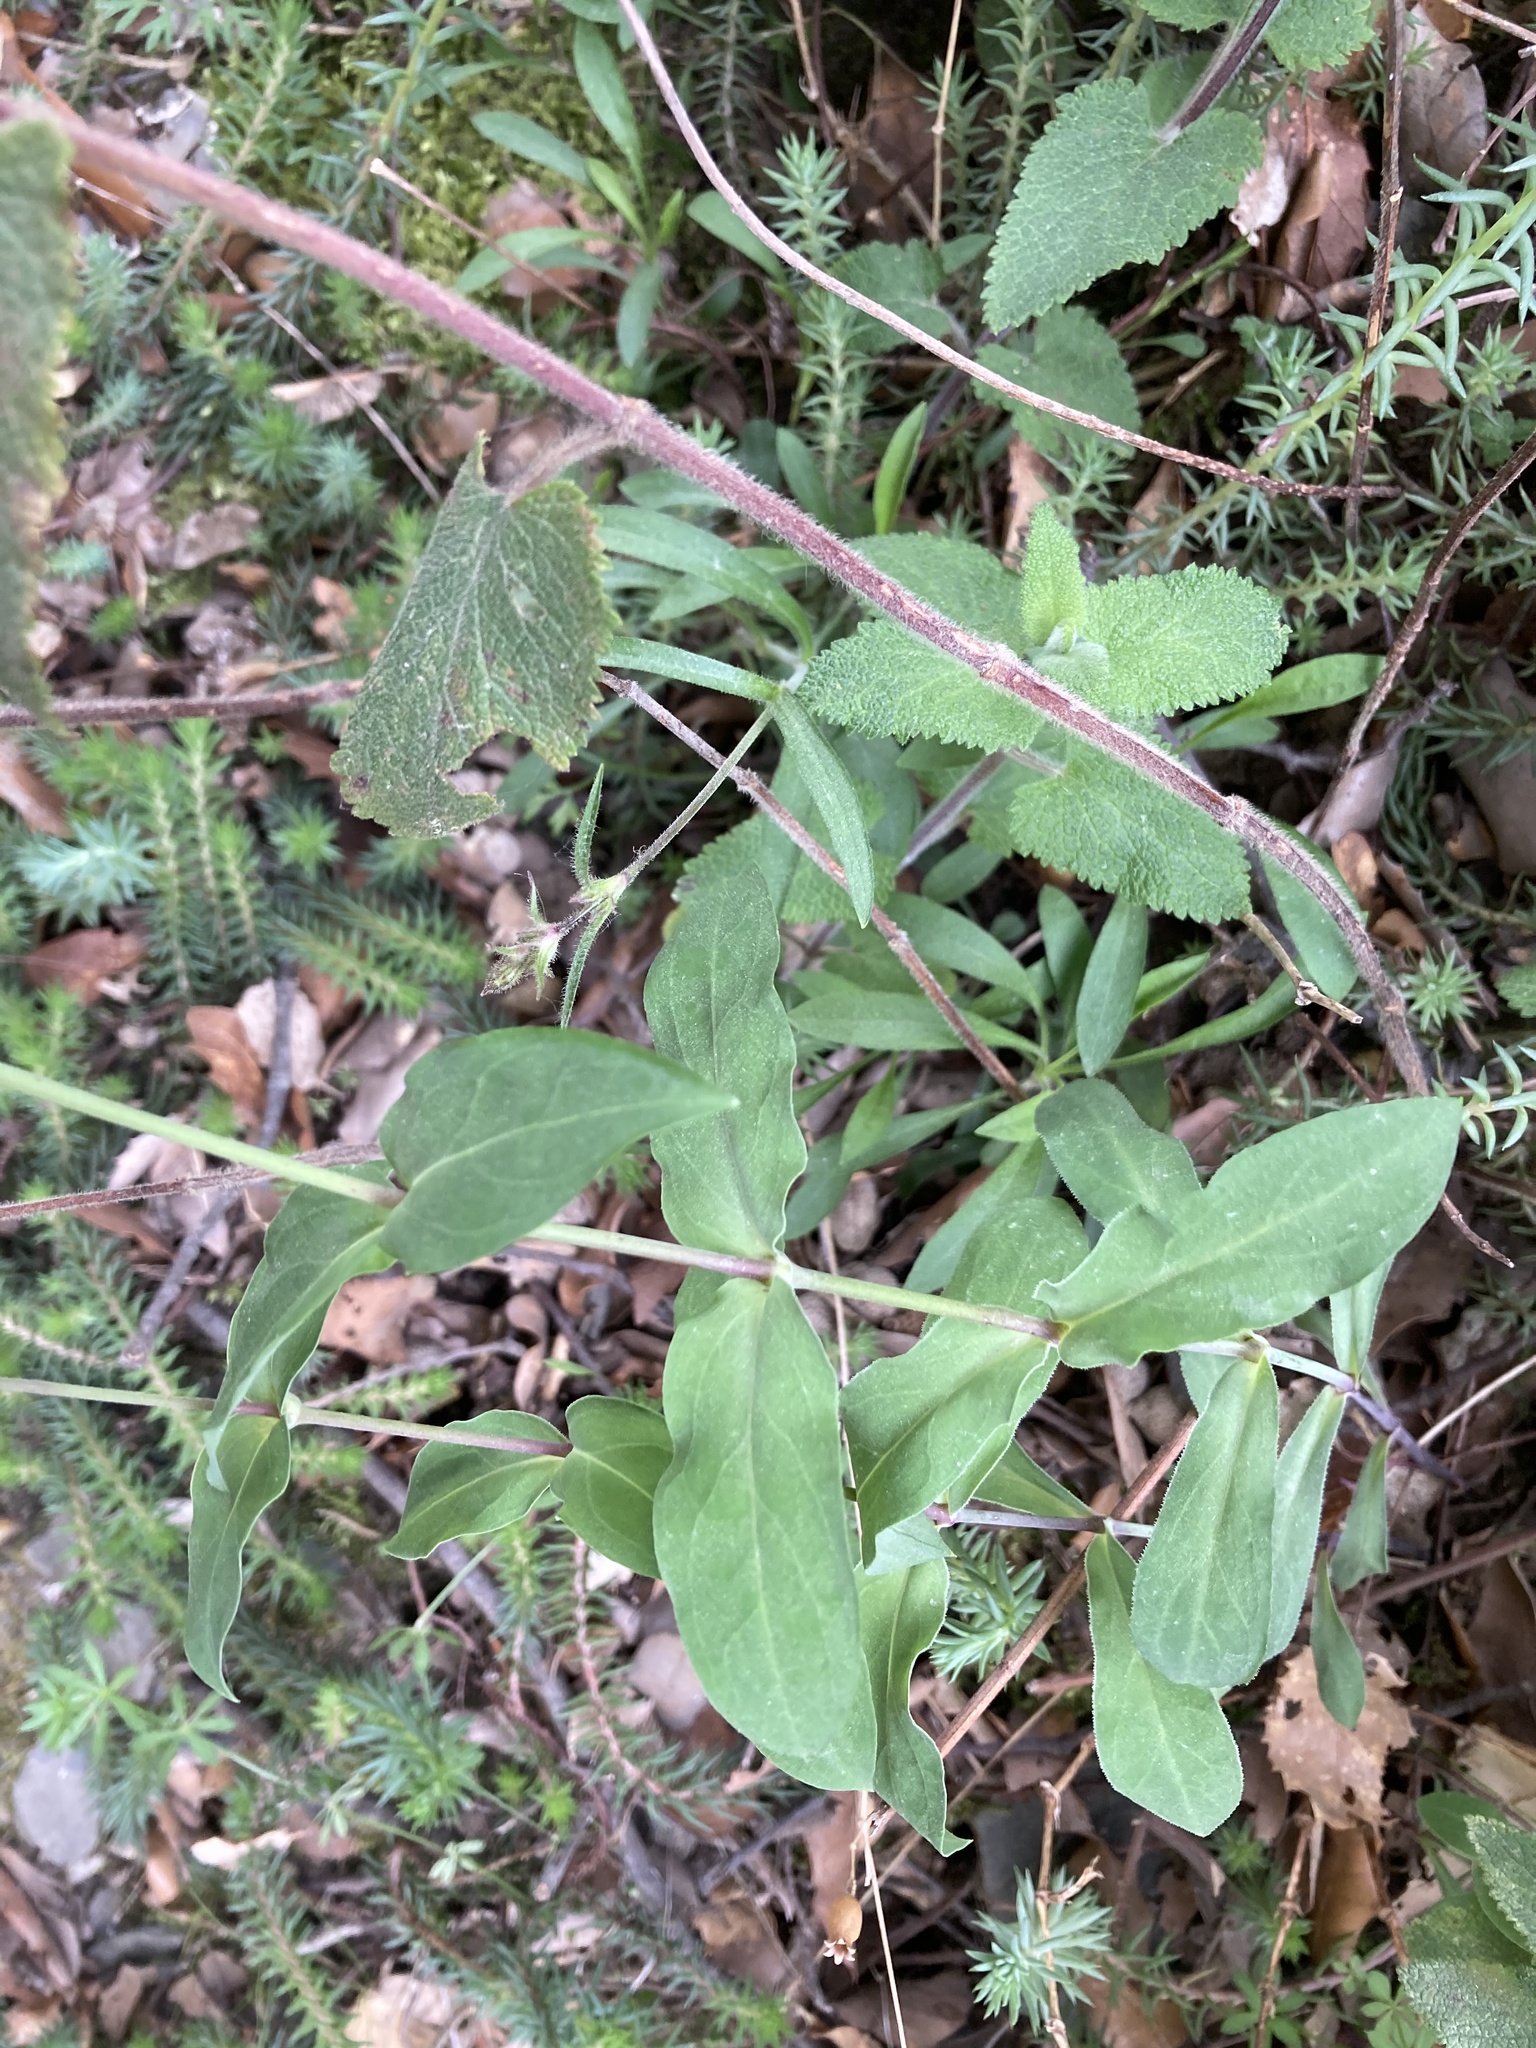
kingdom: Plantae
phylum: Tracheophyta
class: Magnoliopsida
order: Caryophyllales
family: Caryophyllaceae
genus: Silene
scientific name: Silene vulgaris
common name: Bladder campion
